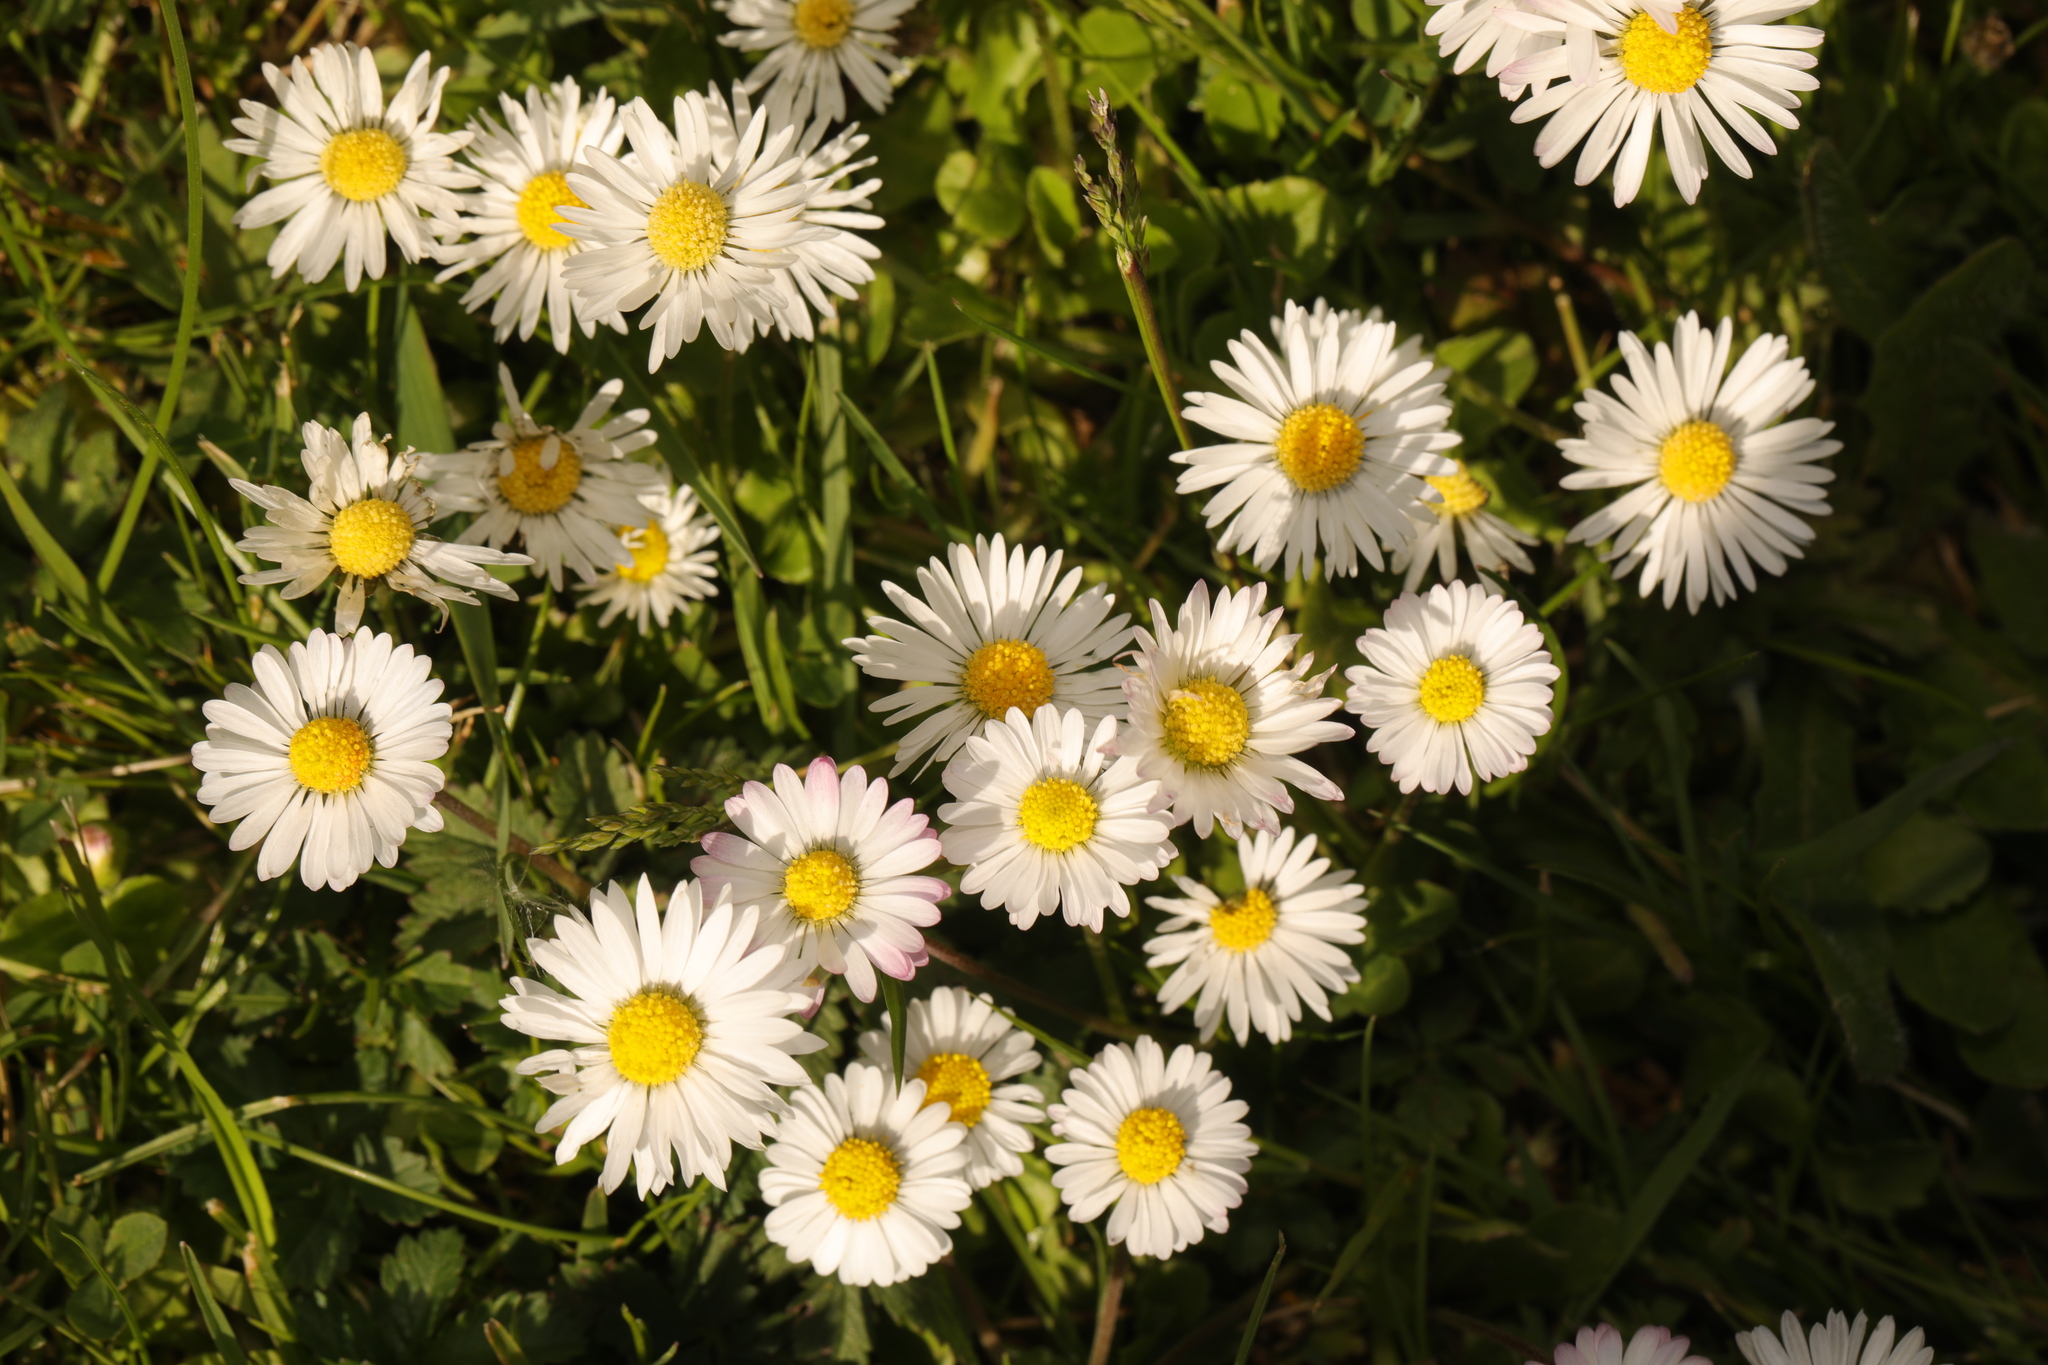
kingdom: Plantae
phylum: Tracheophyta
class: Magnoliopsida
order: Asterales
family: Asteraceae
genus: Bellis
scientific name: Bellis perennis
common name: Lawndaisy
